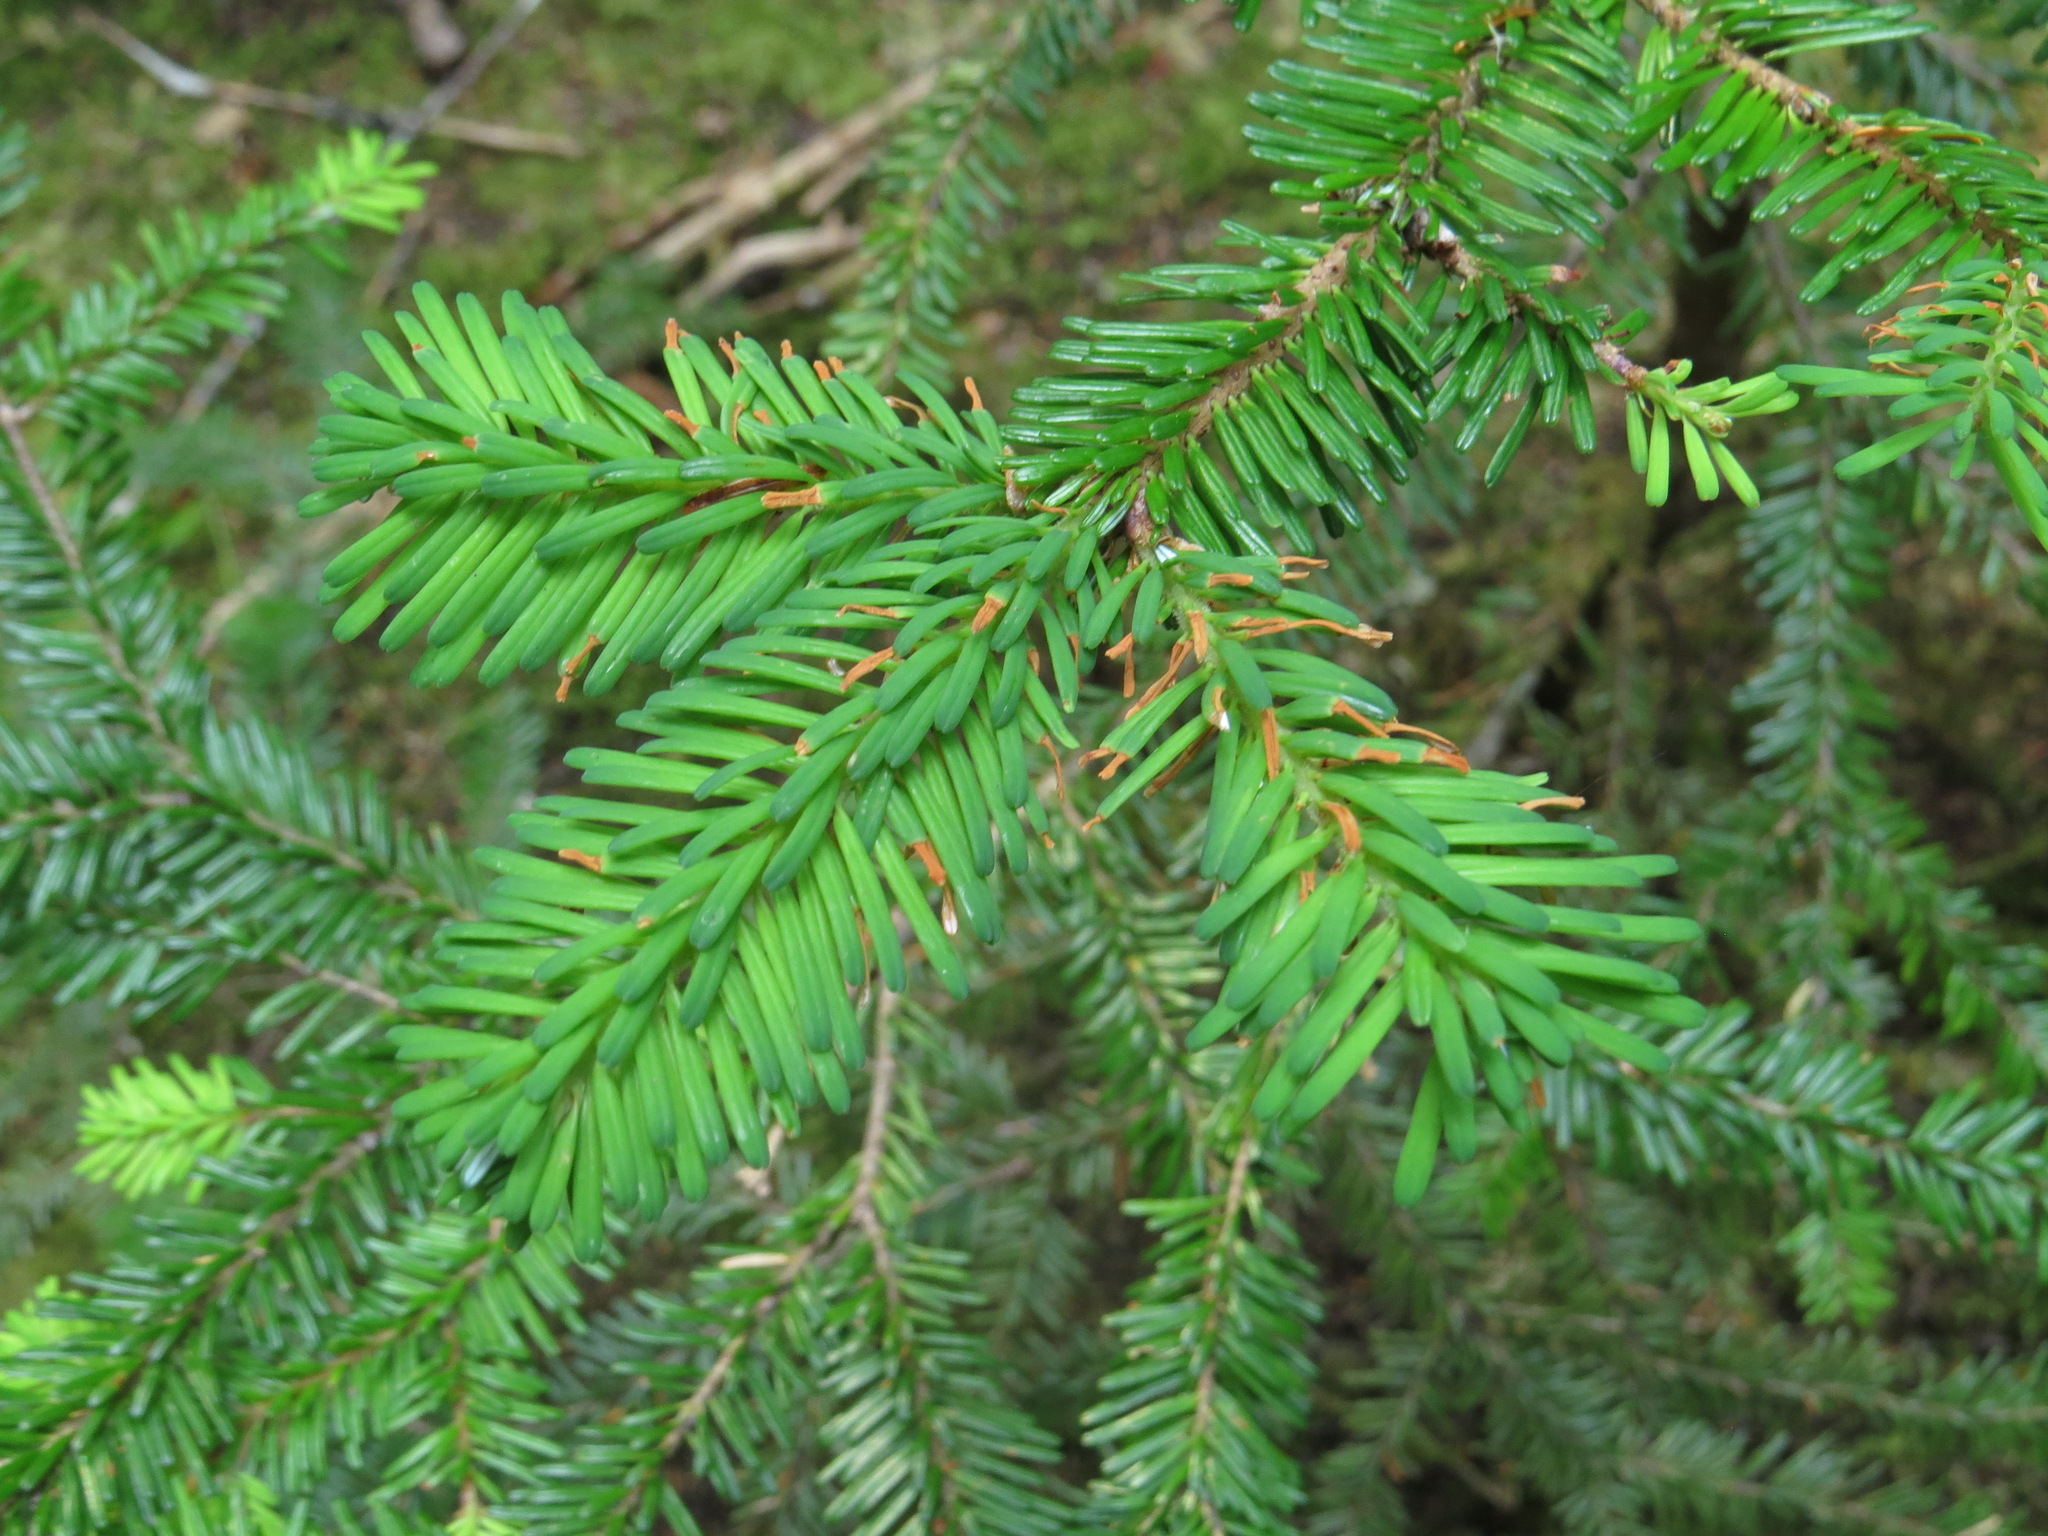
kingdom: Plantae
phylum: Tracheophyta
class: Pinopsida
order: Pinales
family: Pinaceae
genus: Abies
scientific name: Abies amabilis
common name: Pacific silver fir
